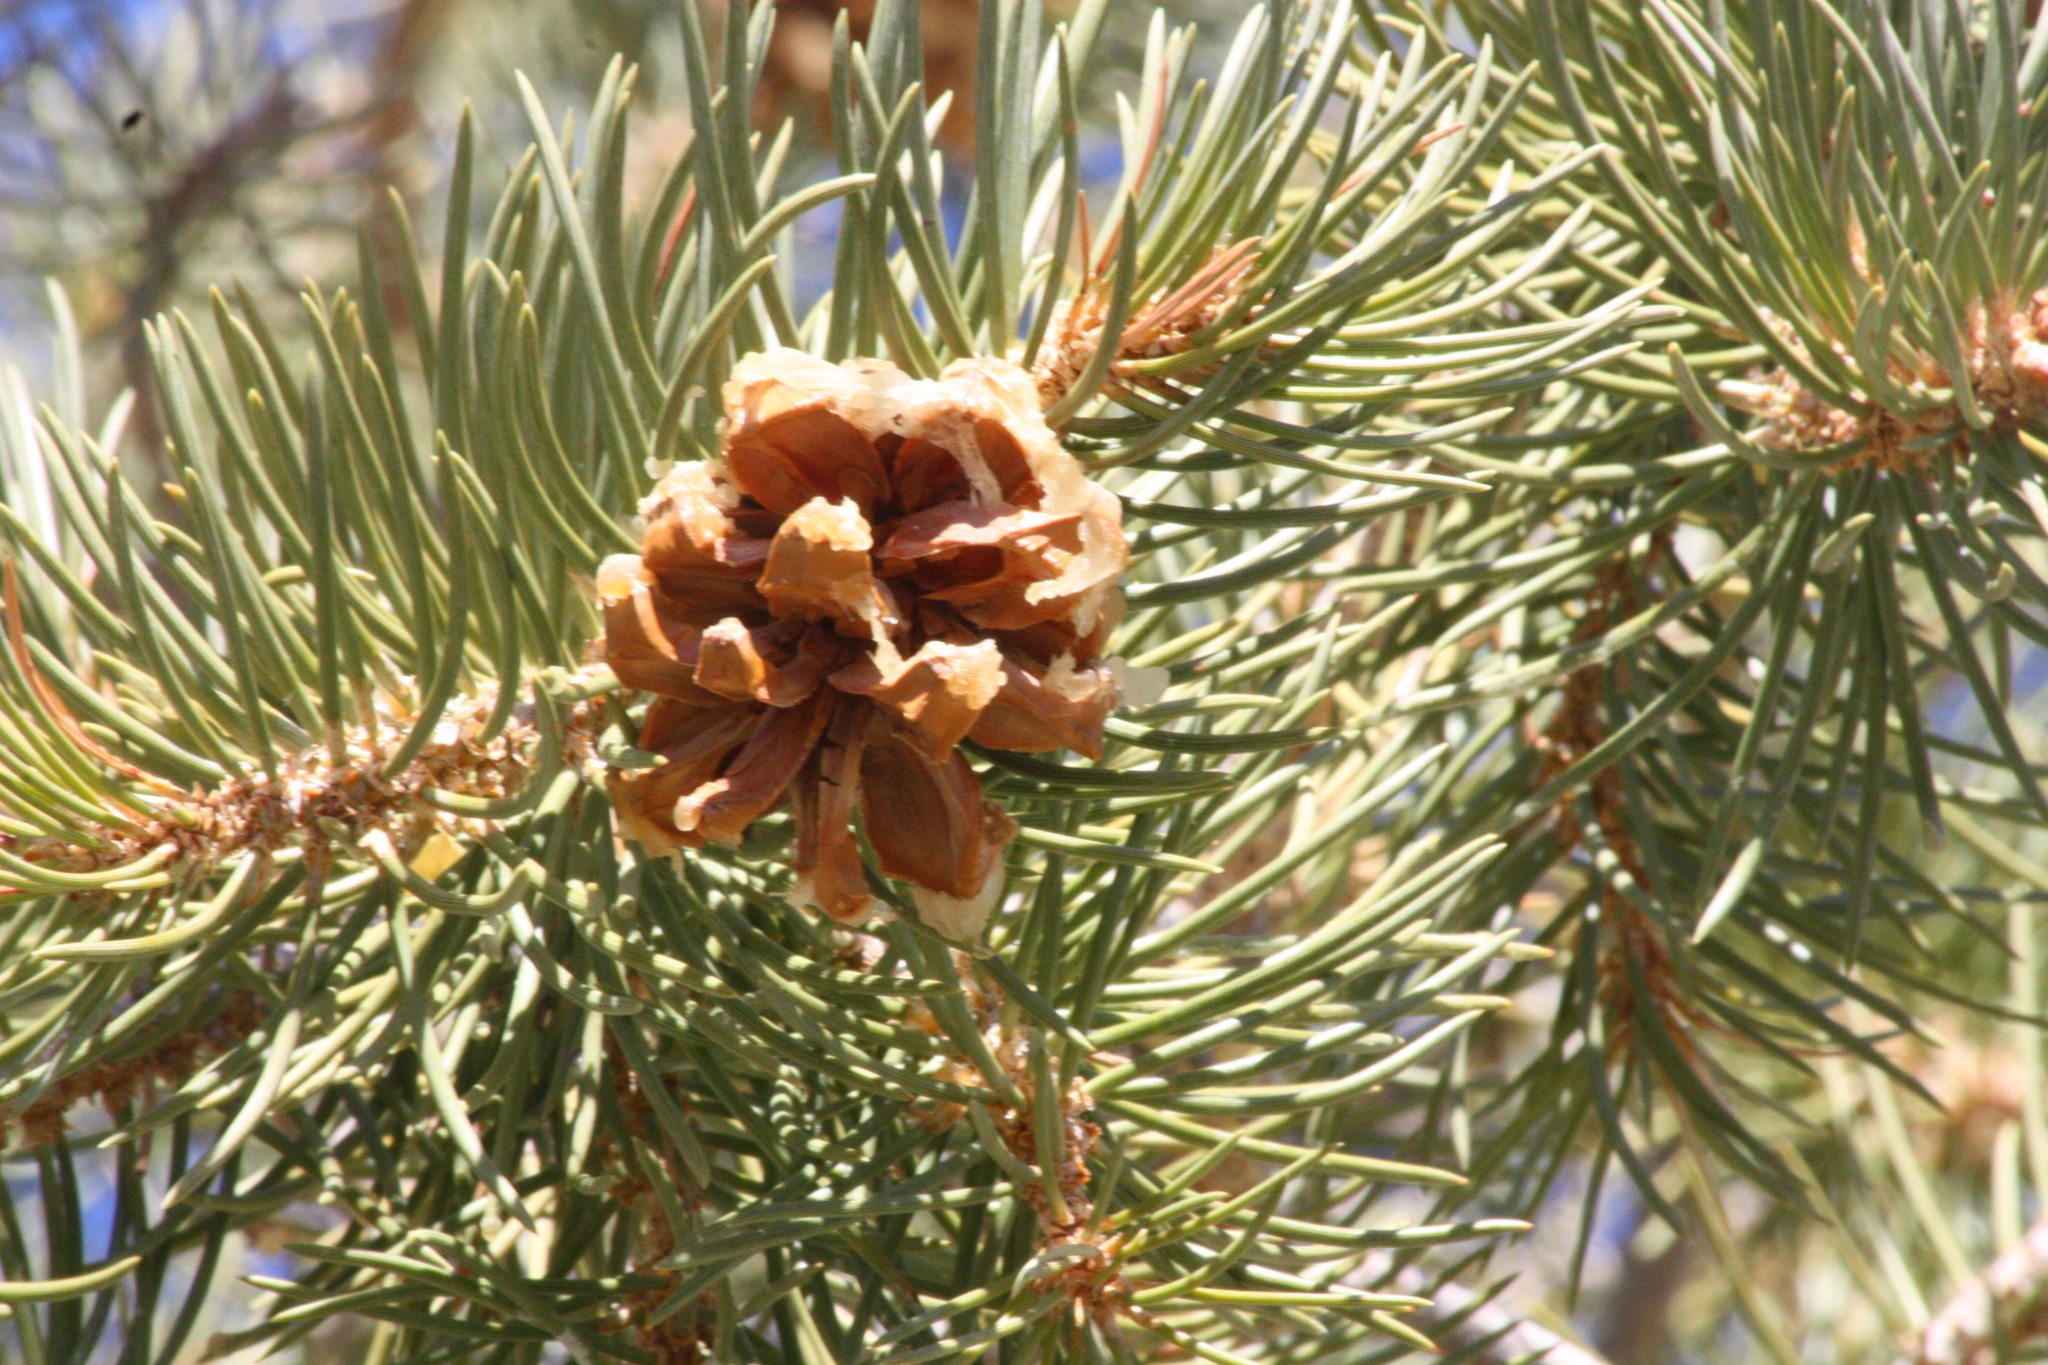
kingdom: Plantae
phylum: Tracheophyta
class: Pinopsida
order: Pinales
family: Pinaceae
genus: Pinus
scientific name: Pinus monophylla
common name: One-leaved nut pine
